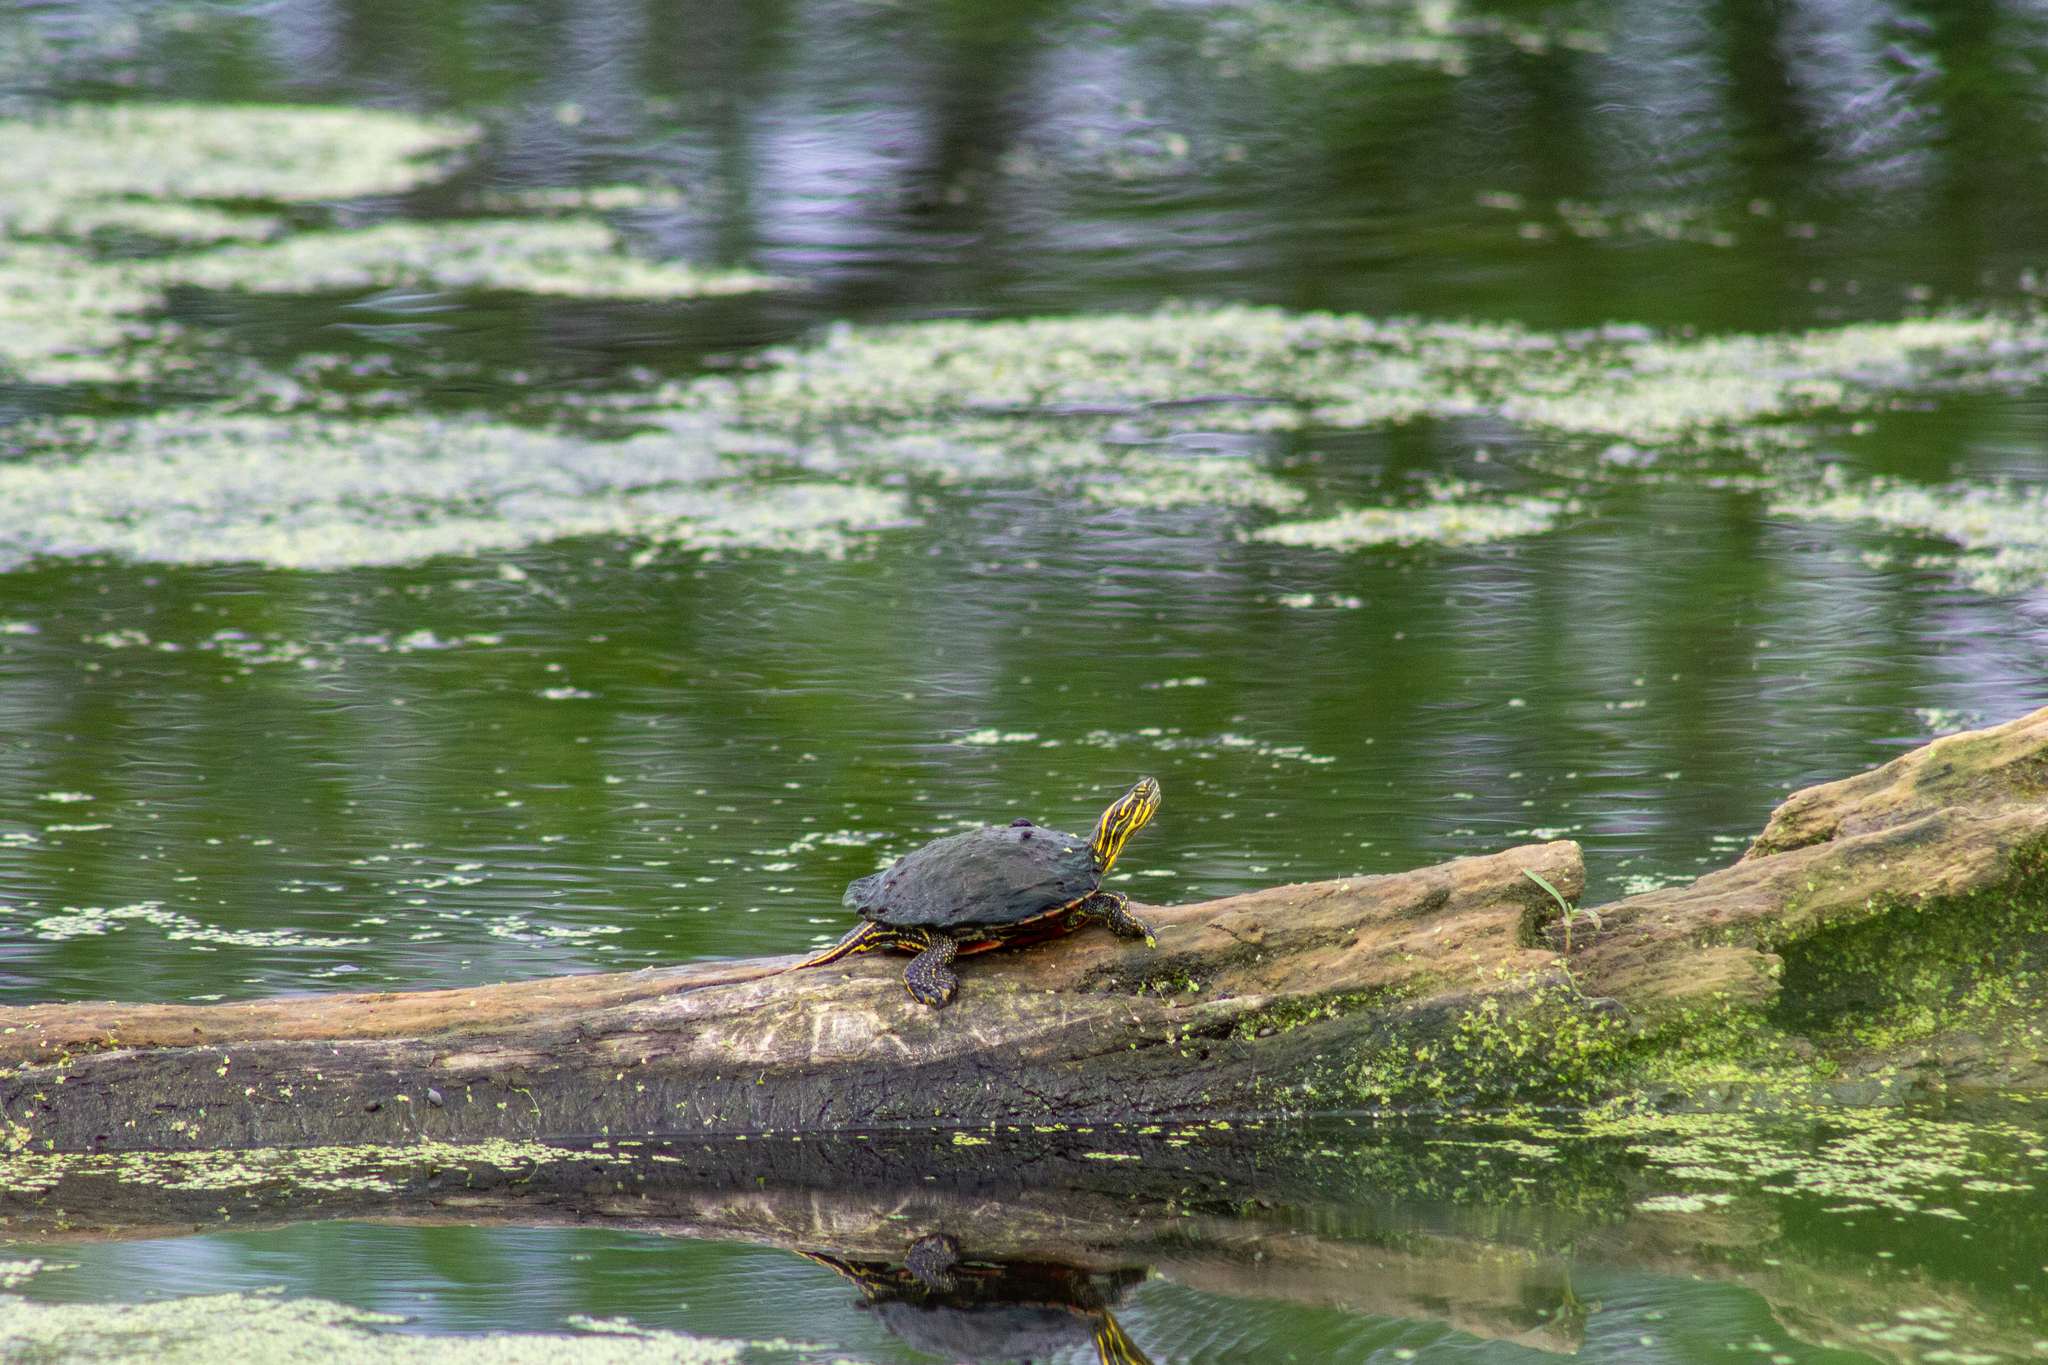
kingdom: Animalia
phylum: Chordata
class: Testudines
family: Emydidae
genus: Chrysemys
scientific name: Chrysemys picta
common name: Painted turtle
